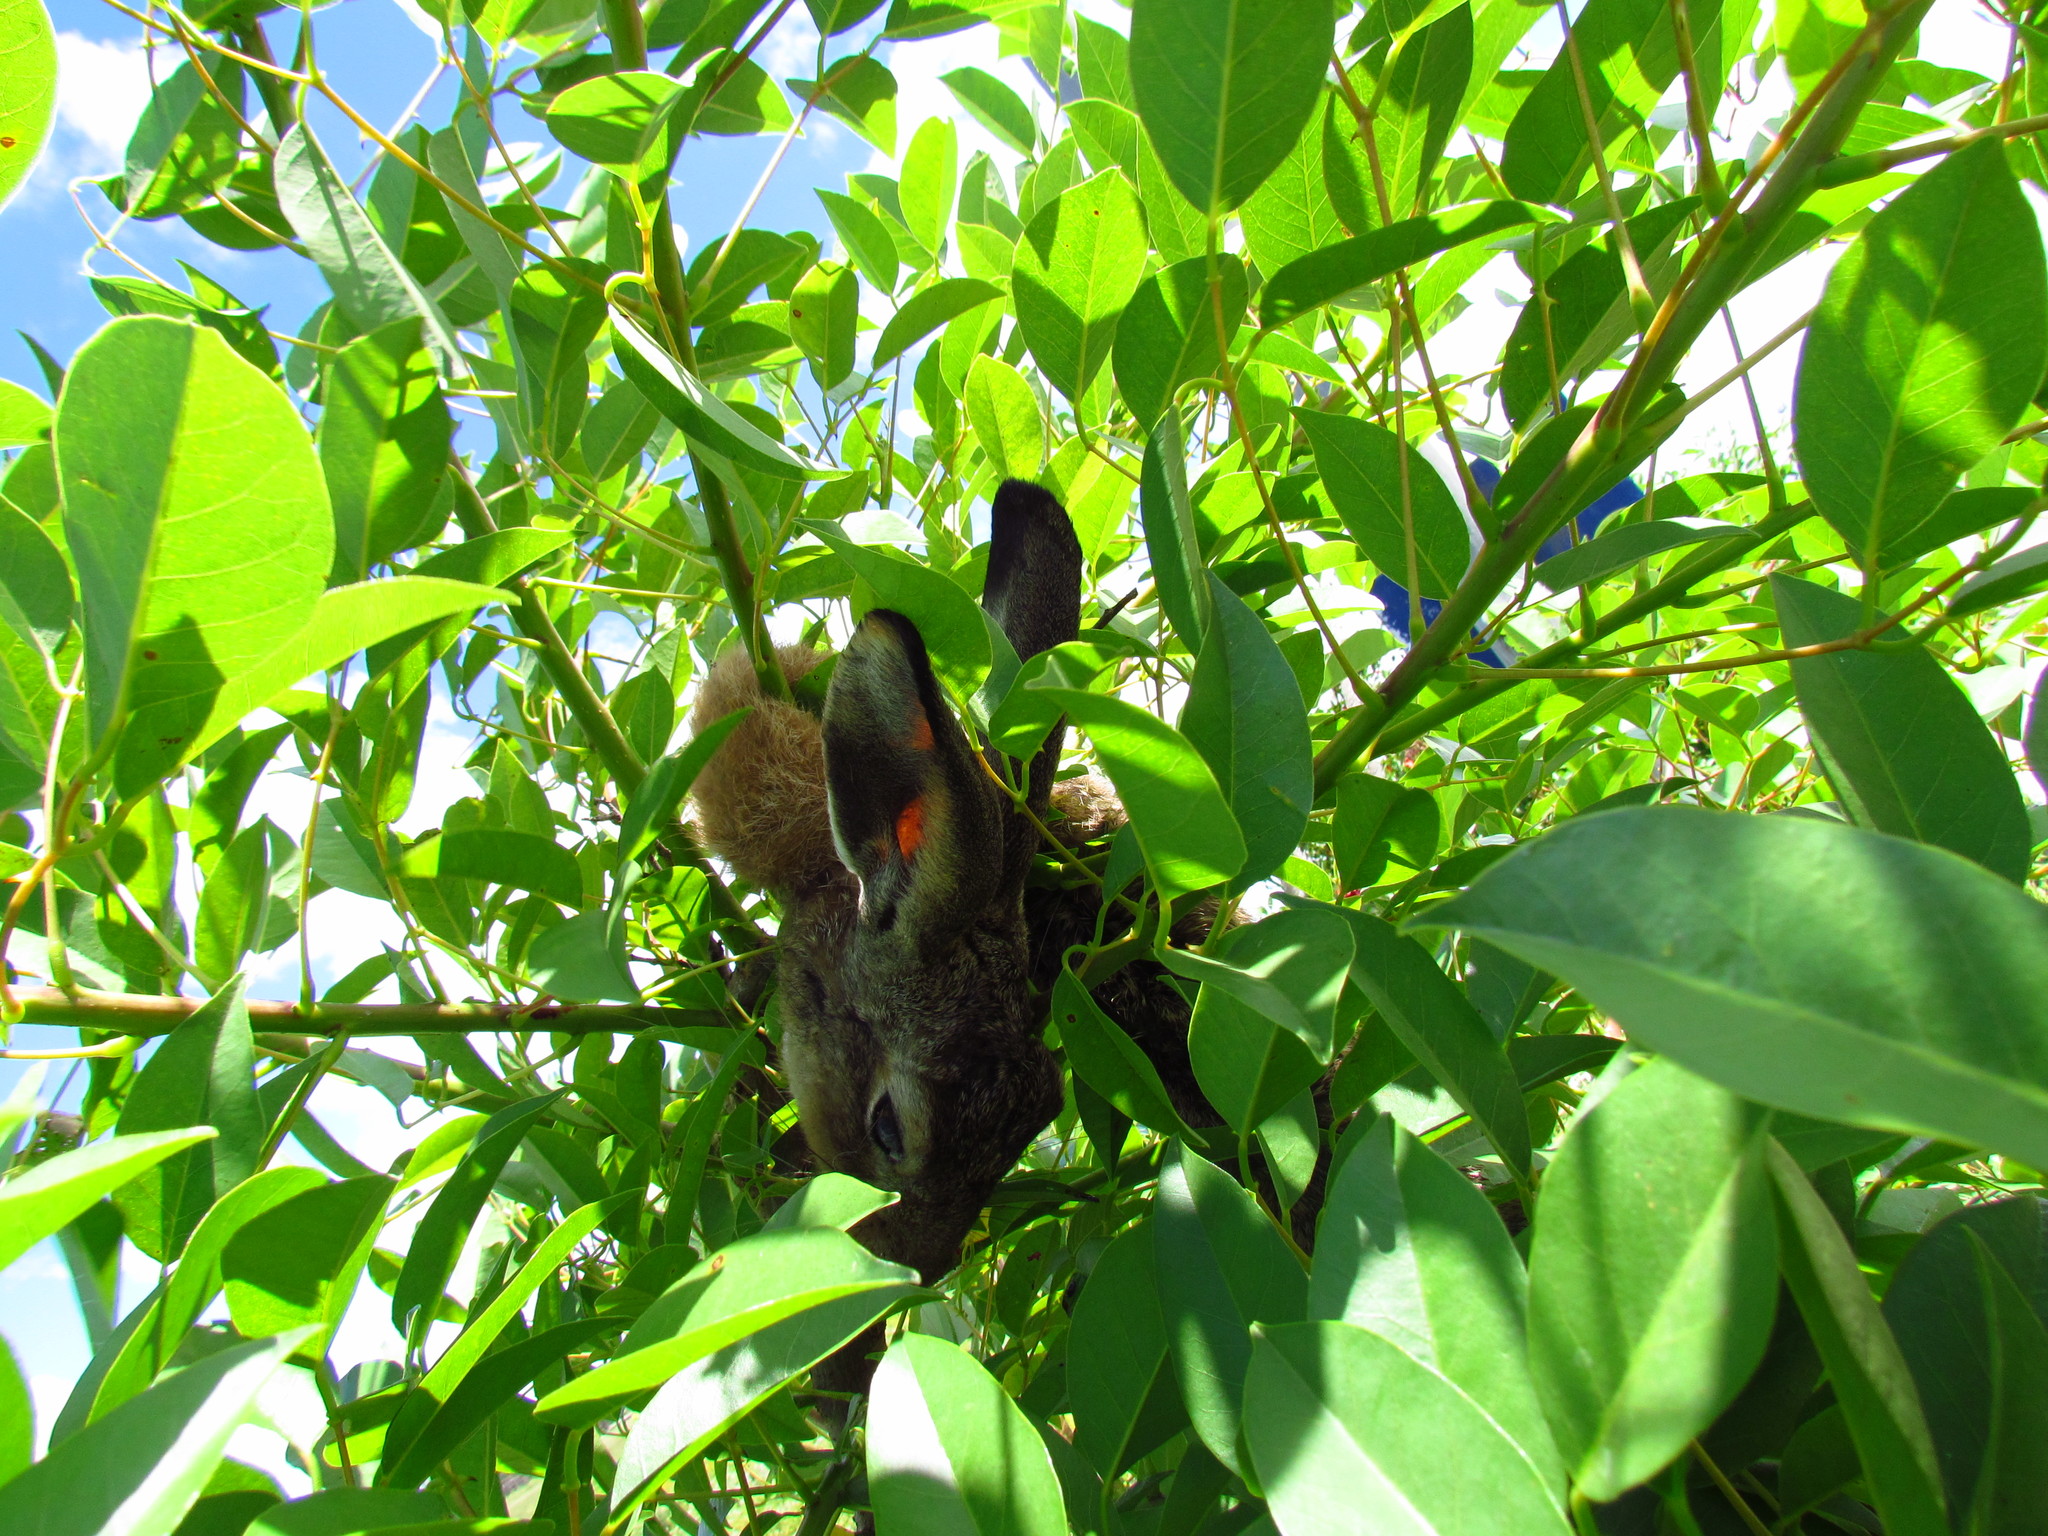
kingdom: Animalia
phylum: Chordata
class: Mammalia
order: Lagomorpha
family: Leporidae
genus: Lepus
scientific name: Lepus europaeus
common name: European hare
